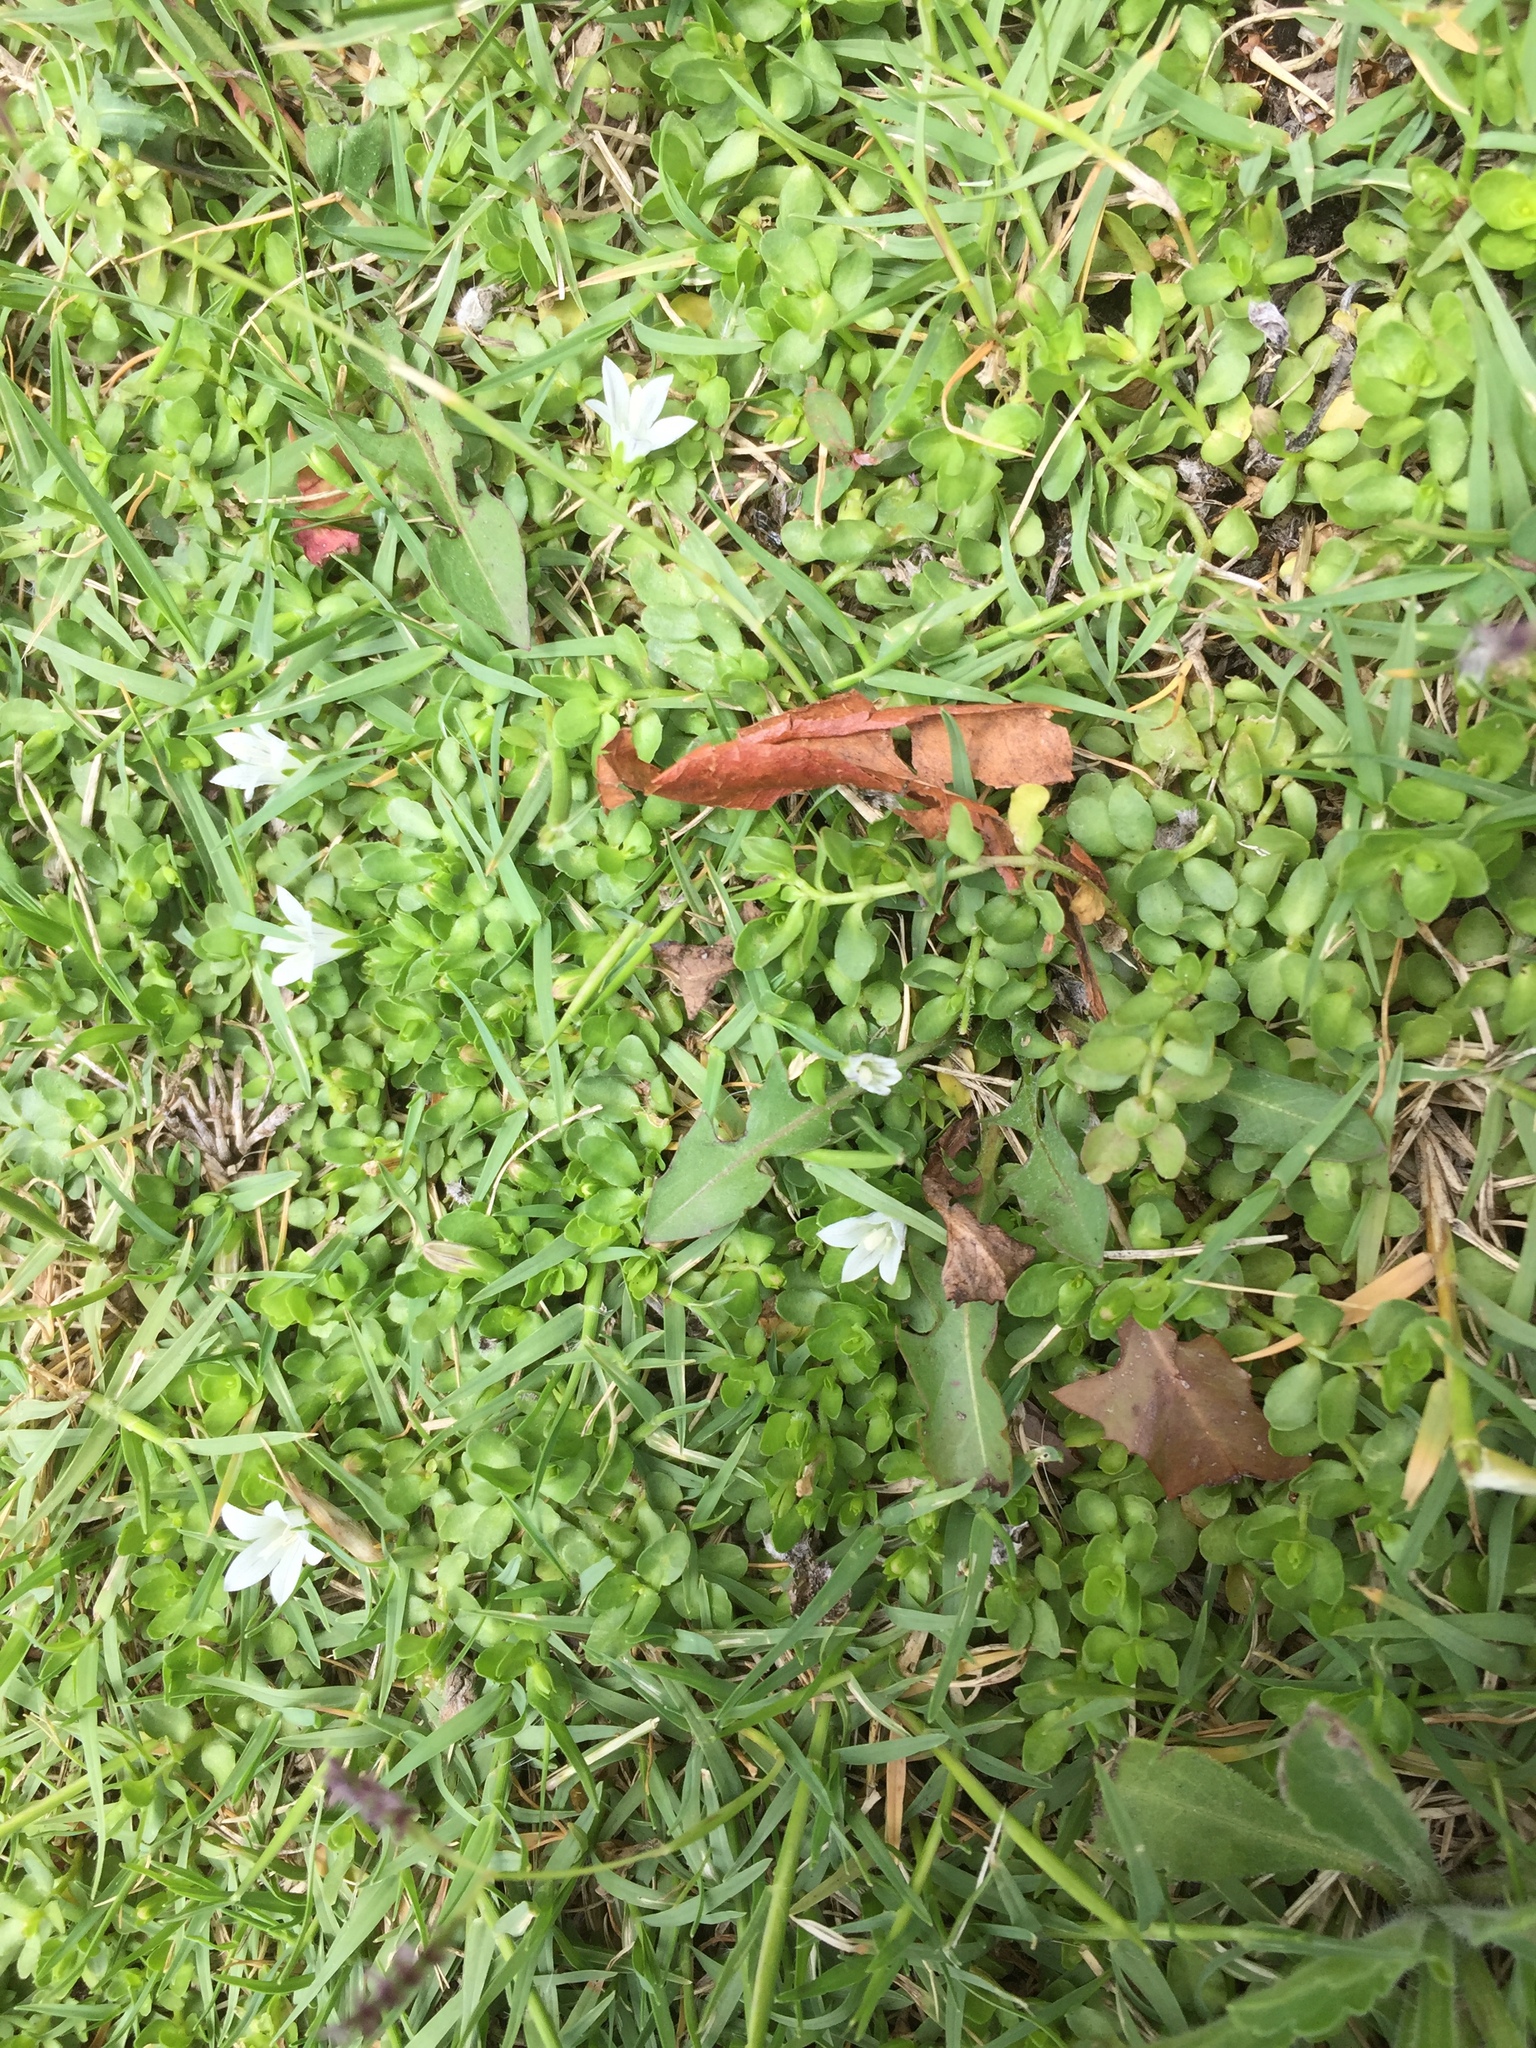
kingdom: Plantae
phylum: Tracheophyta
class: Magnoliopsida
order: Asterales
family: Campanulaceae
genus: Wahlenbergia
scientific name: Wahlenbergia procumbens
